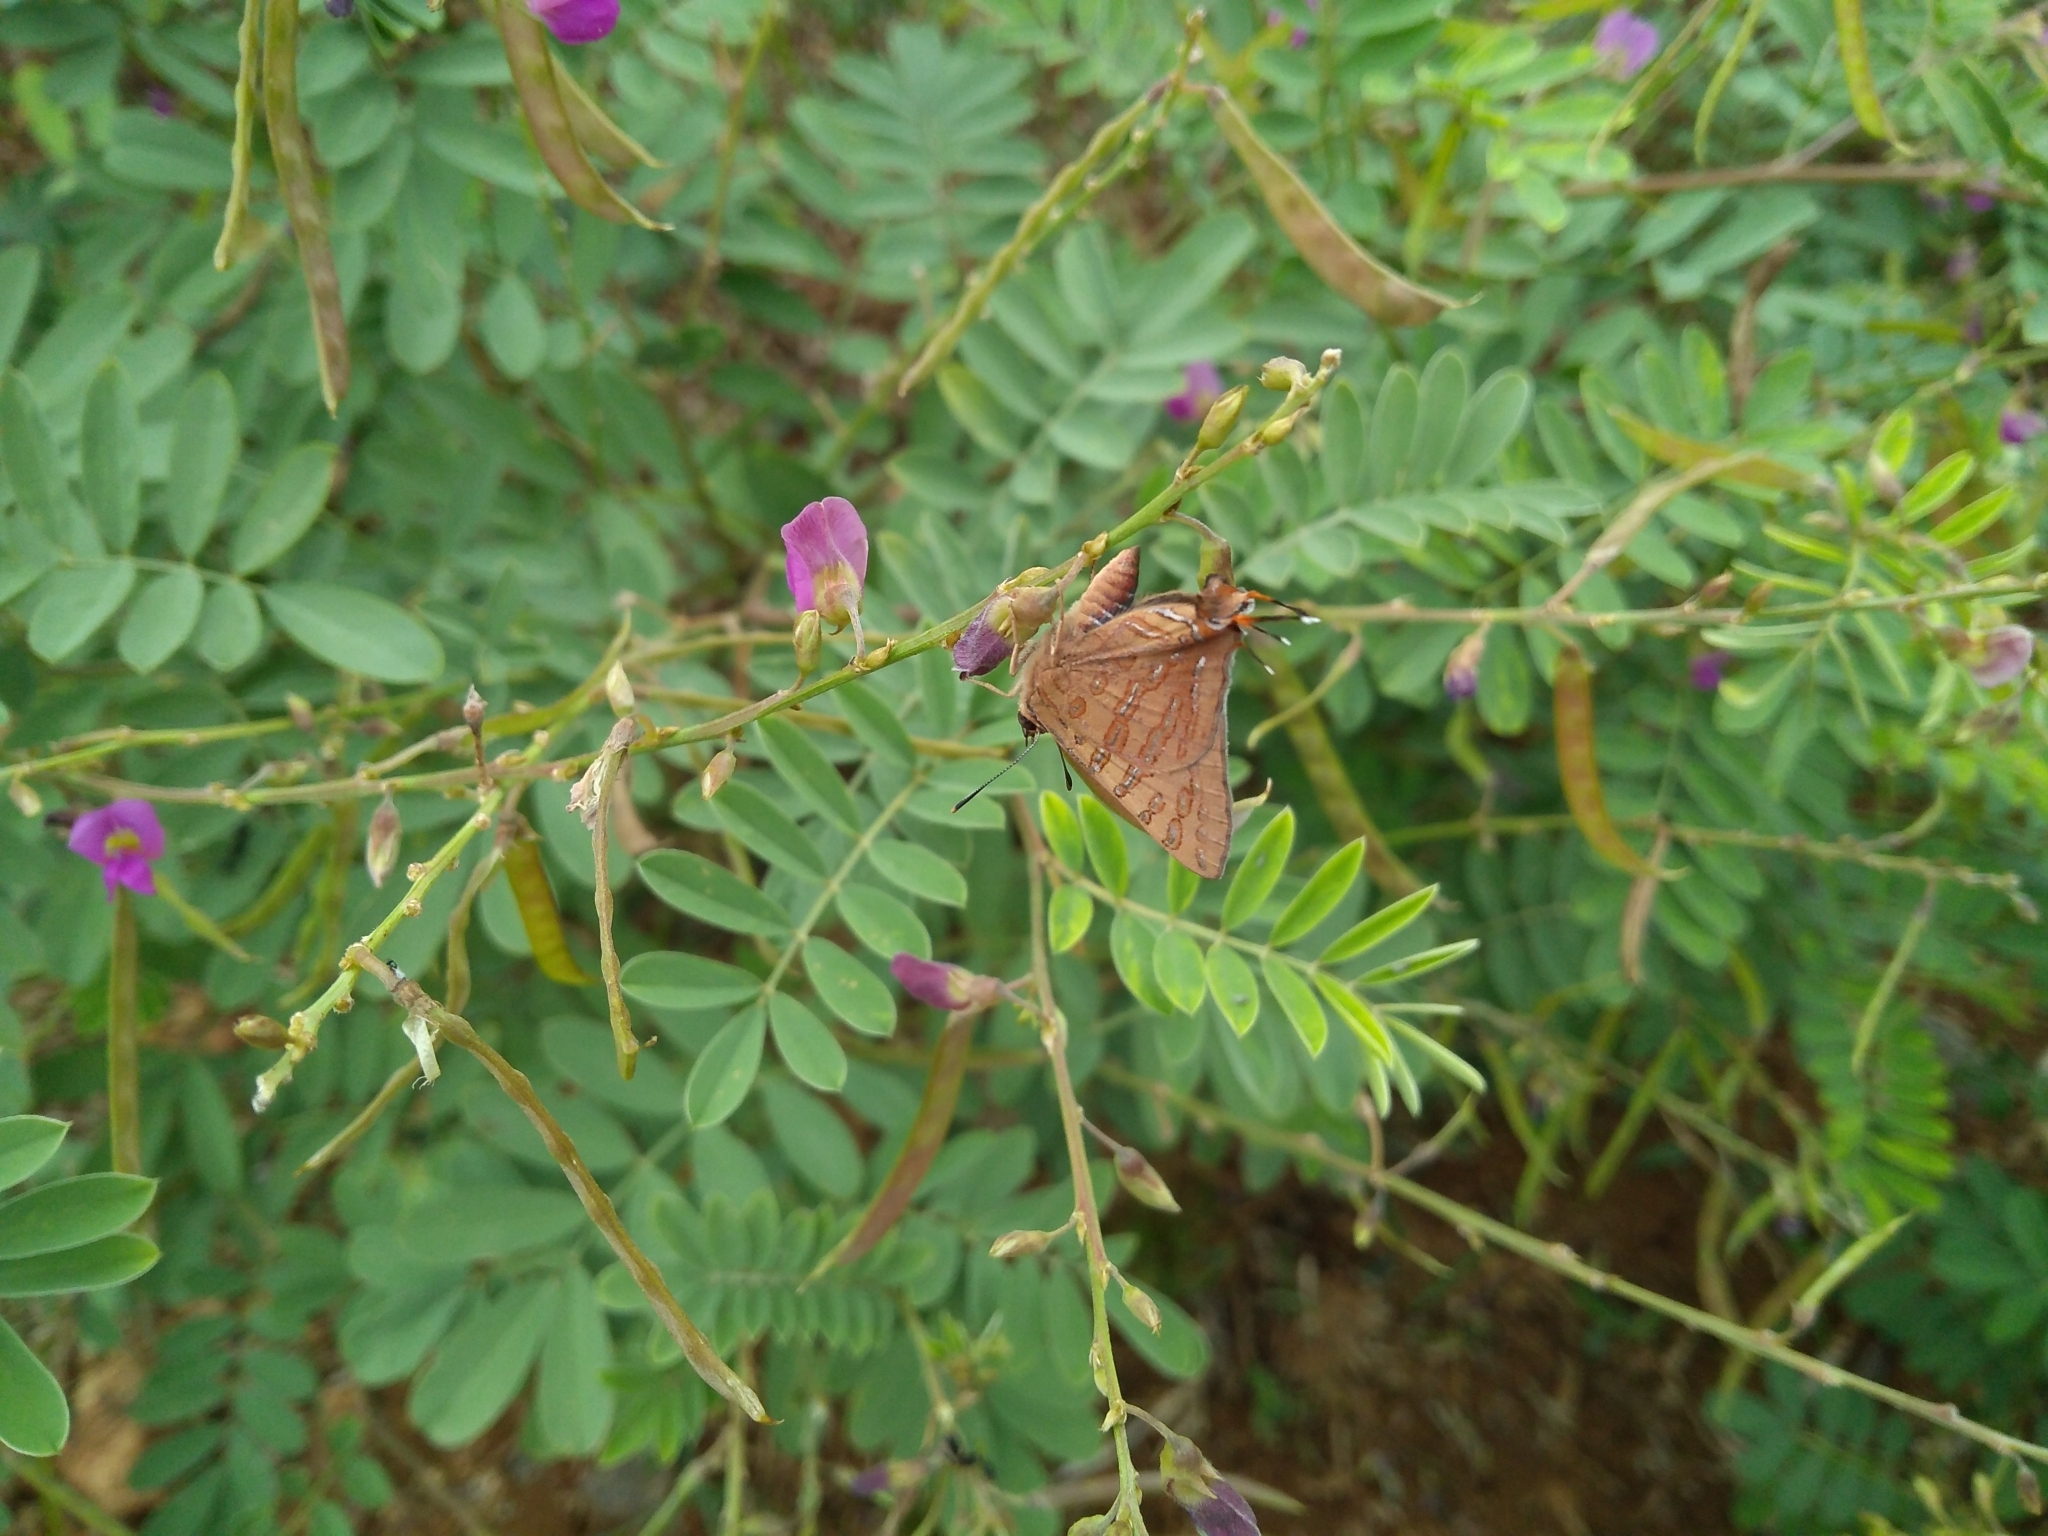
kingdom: Animalia
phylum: Arthropoda
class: Insecta
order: Lepidoptera
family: Lycaenidae
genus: Cigaritis
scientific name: Cigaritis elima
